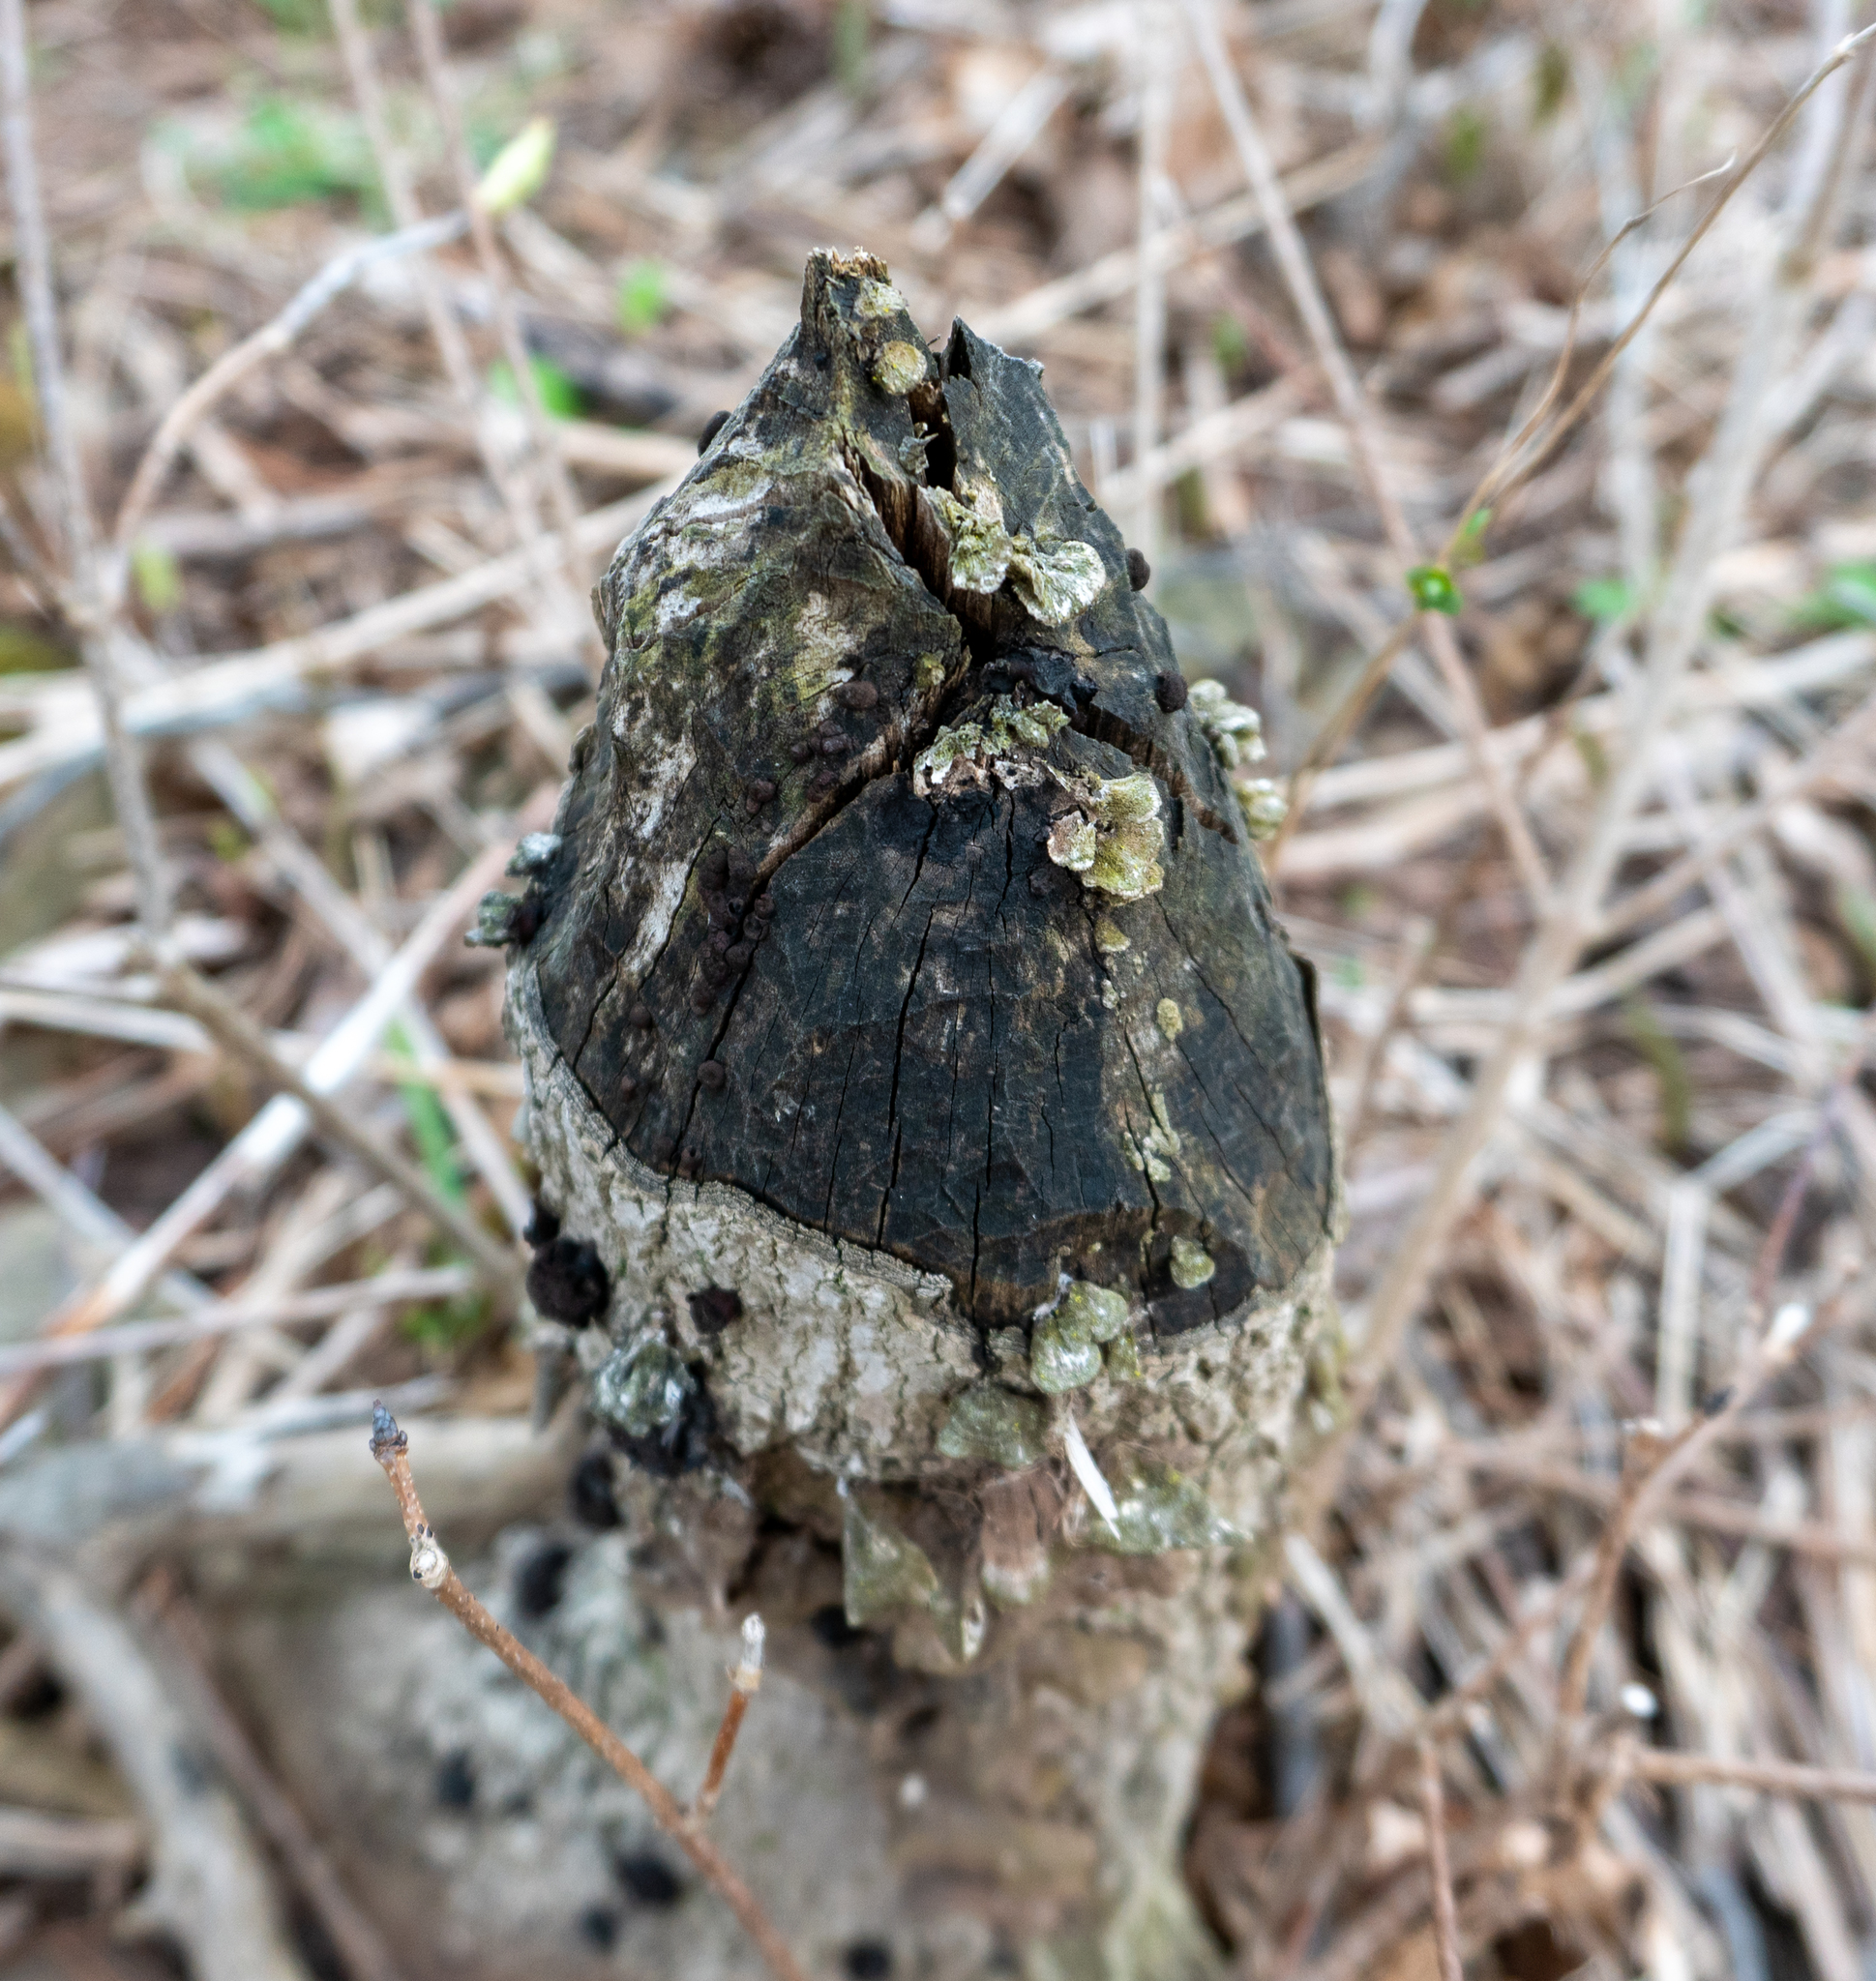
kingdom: Animalia
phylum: Chordata
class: Mammalia
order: Rodentia
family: Castoridae
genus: Castor
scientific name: Castor canadensis
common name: American beaver
